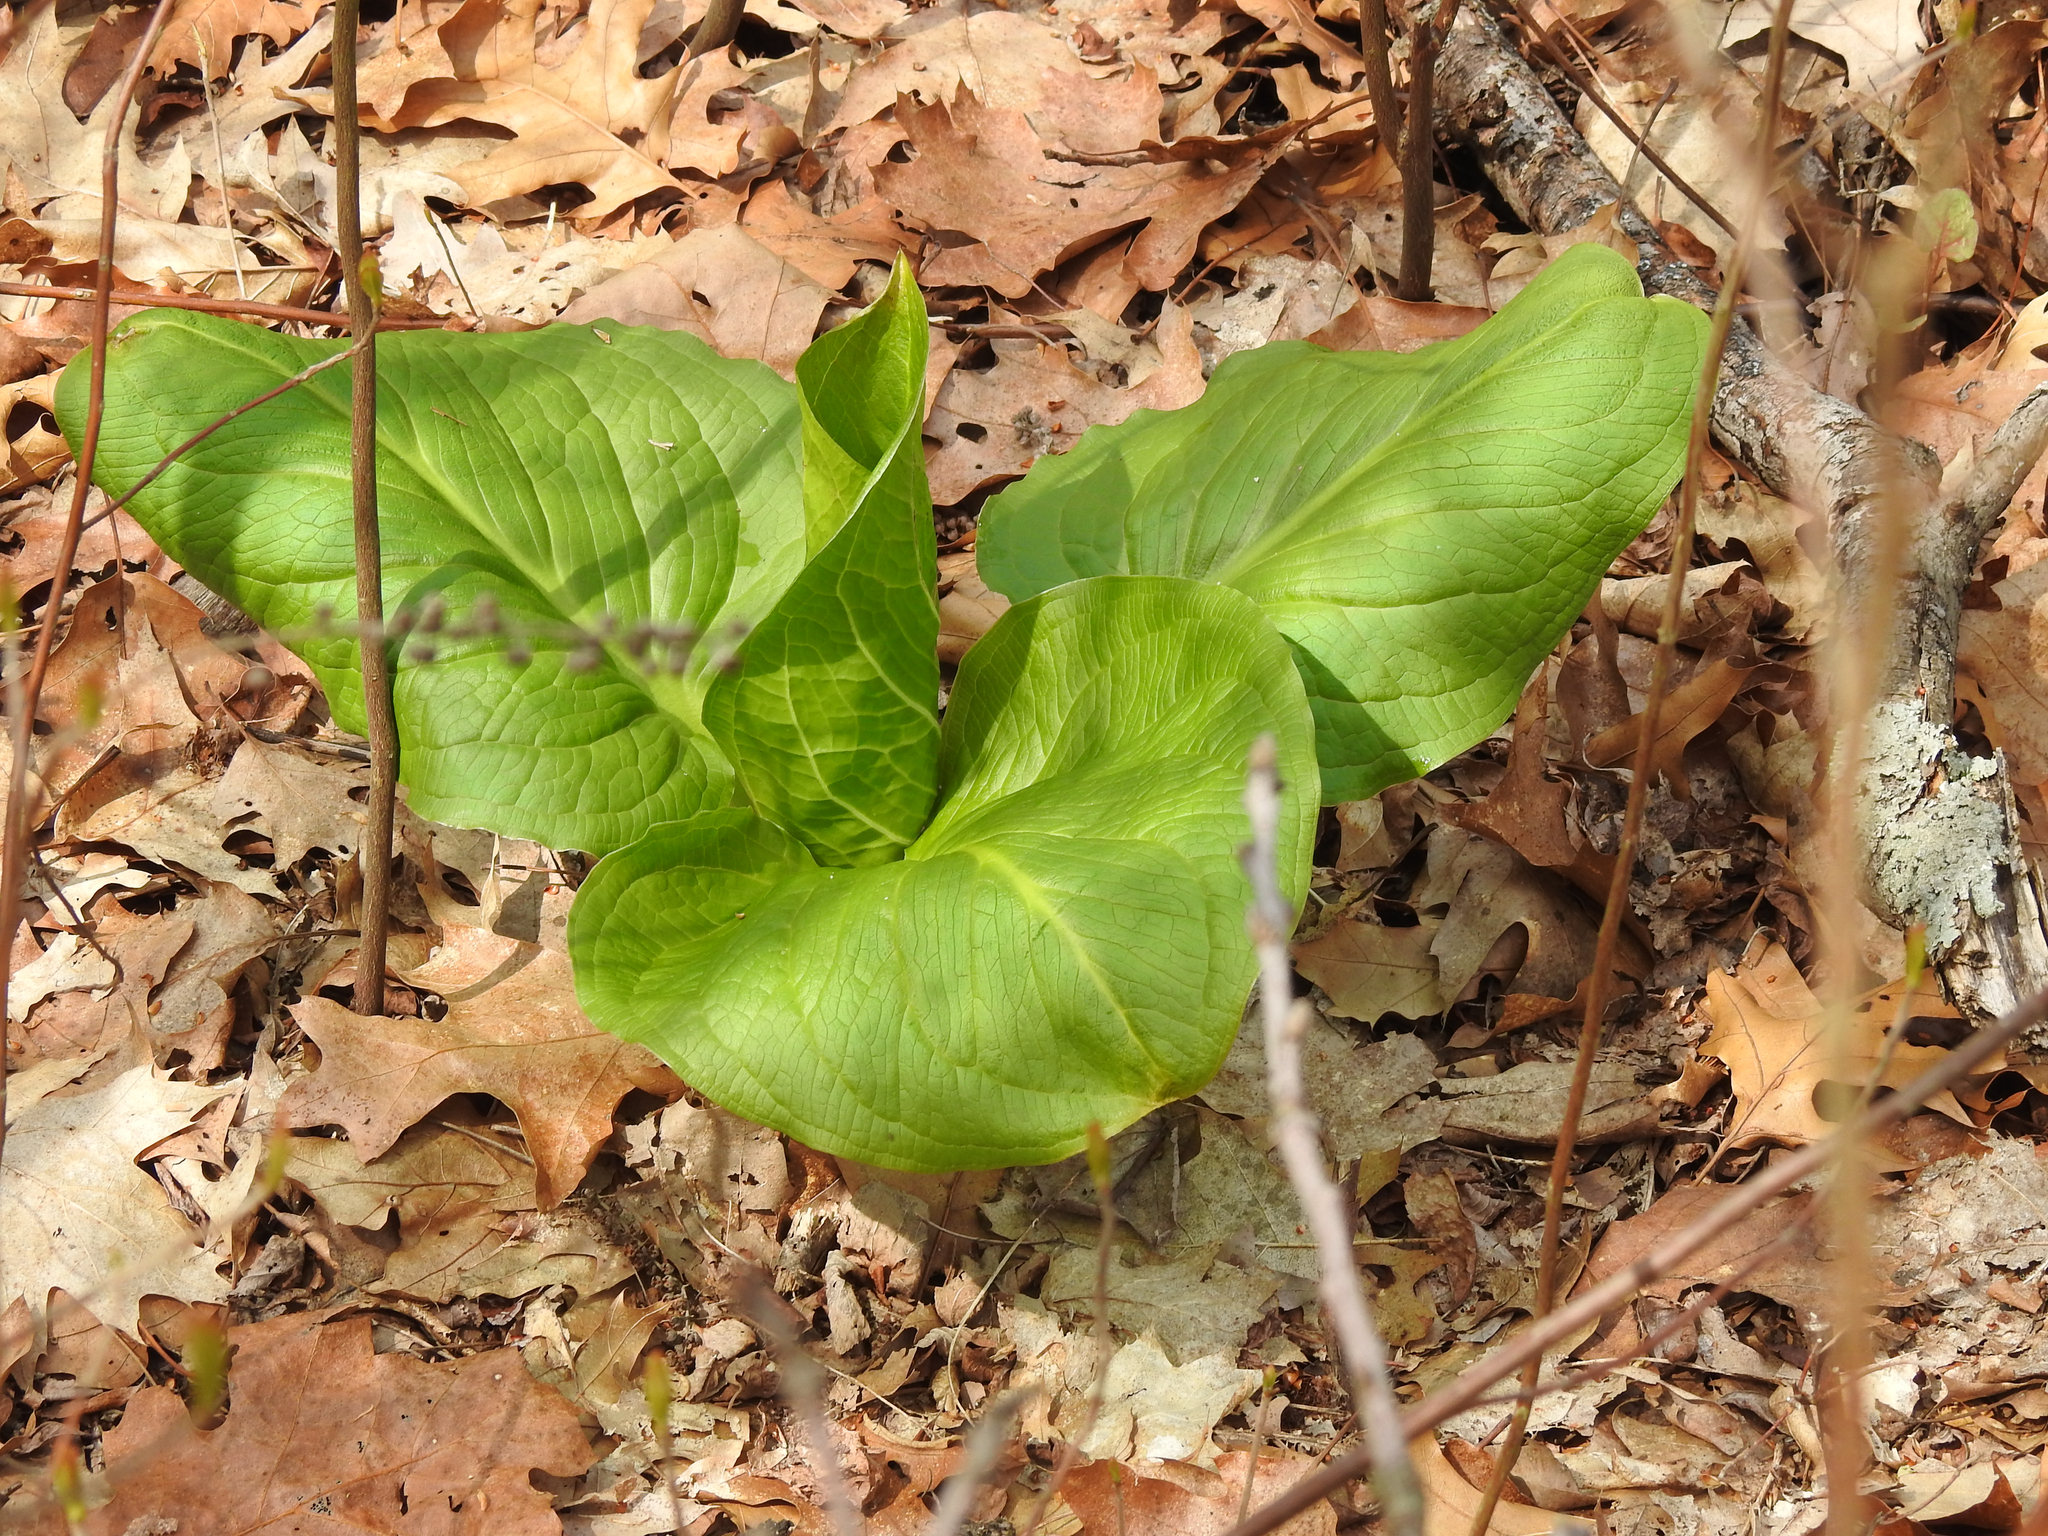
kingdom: Plantae
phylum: Tracheophyta
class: Liliopsida
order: Alismatales
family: Araceae
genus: Symplocarpus
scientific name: Symplocarpus foetidus
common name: Eastern skunk cabbage
